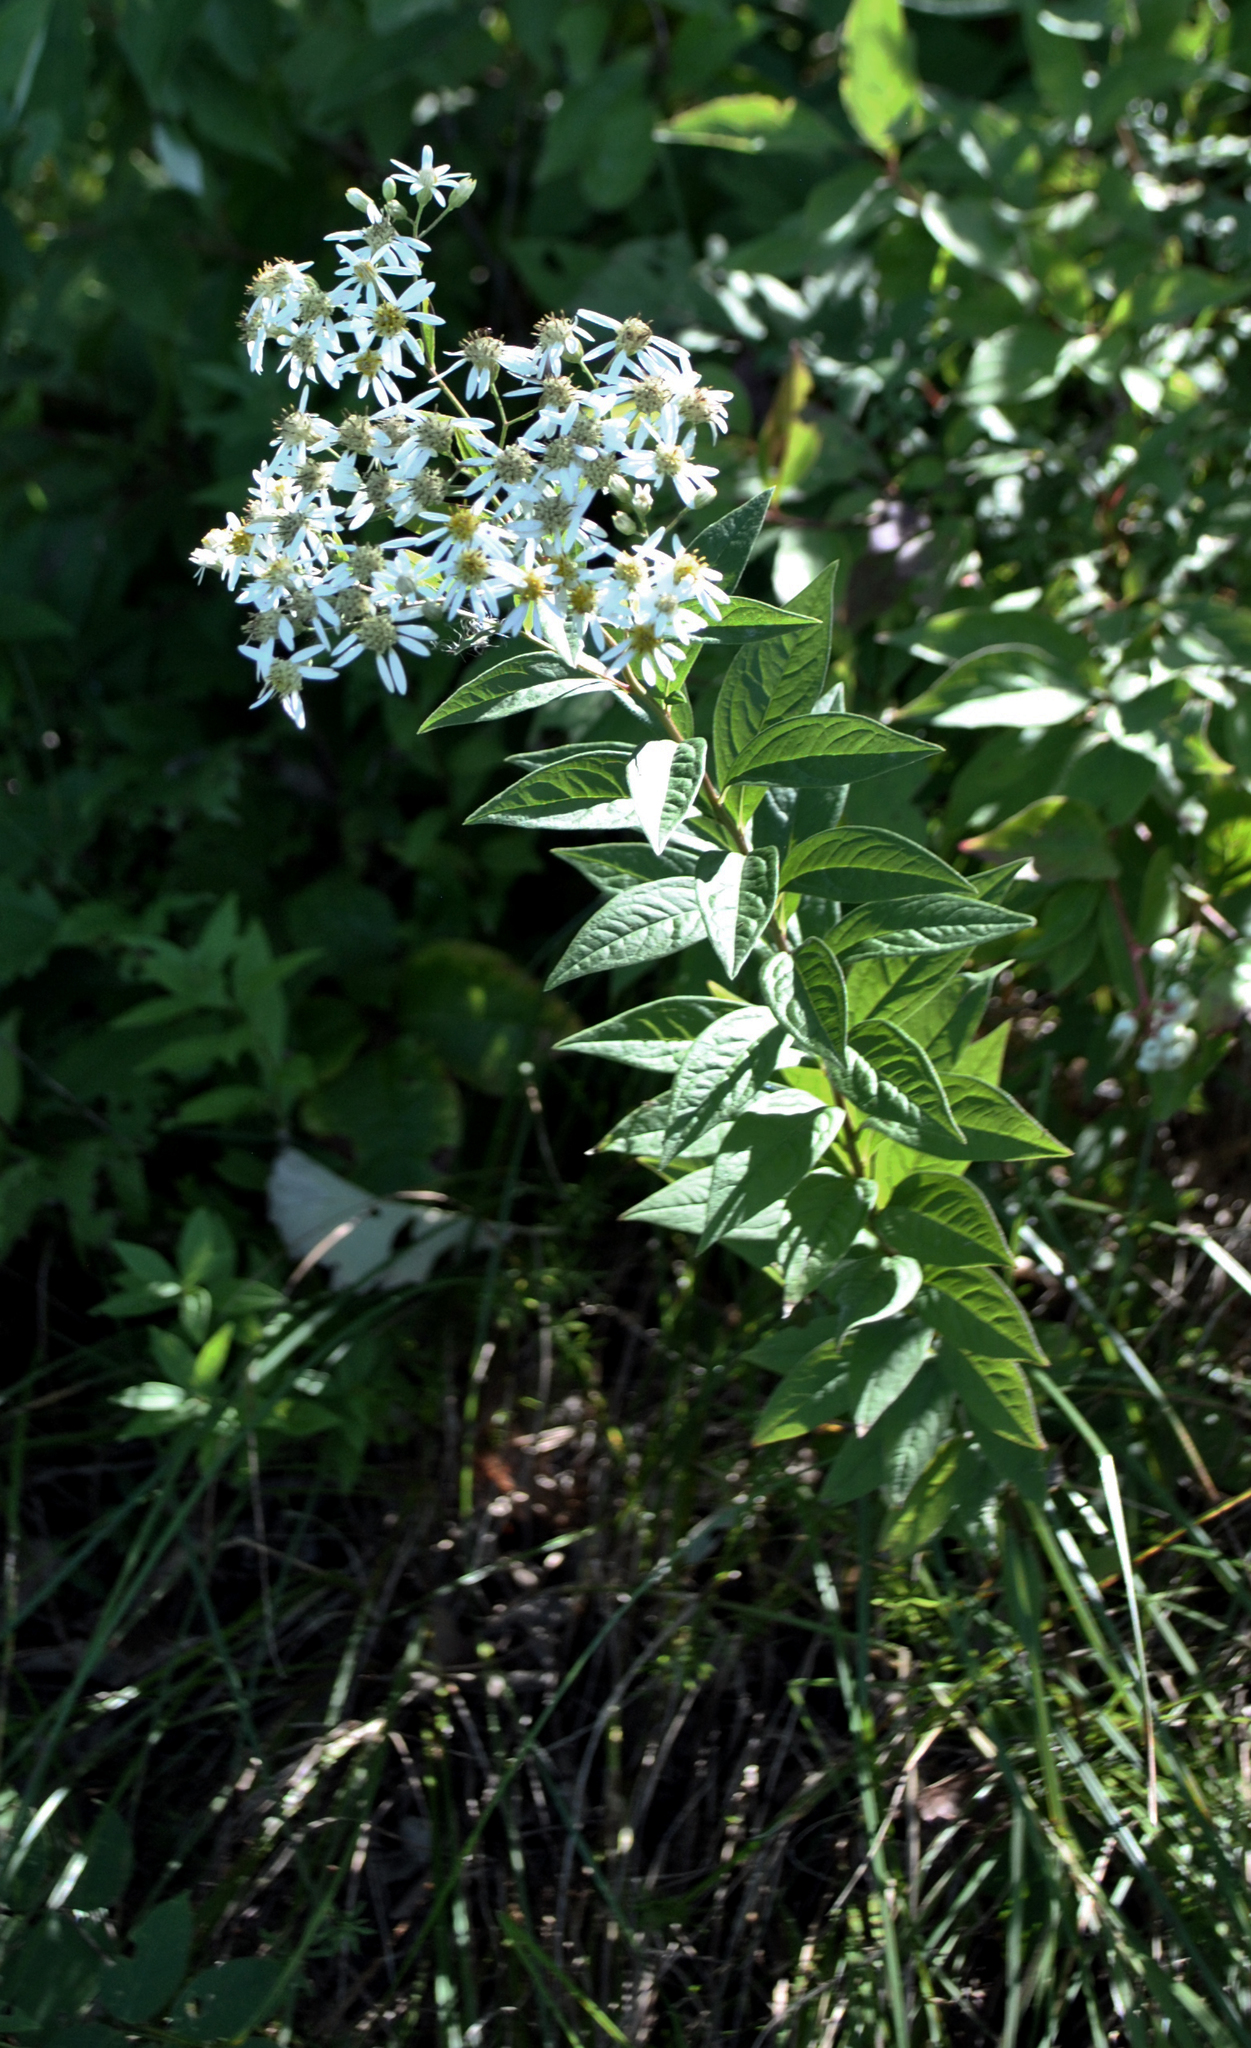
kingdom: Plantae
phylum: Tracheophyta
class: Magnoliopsida
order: Asterales
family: Asteraceae
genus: Doellingeria
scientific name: Doellingeria umbellata
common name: Flat-top white aster
